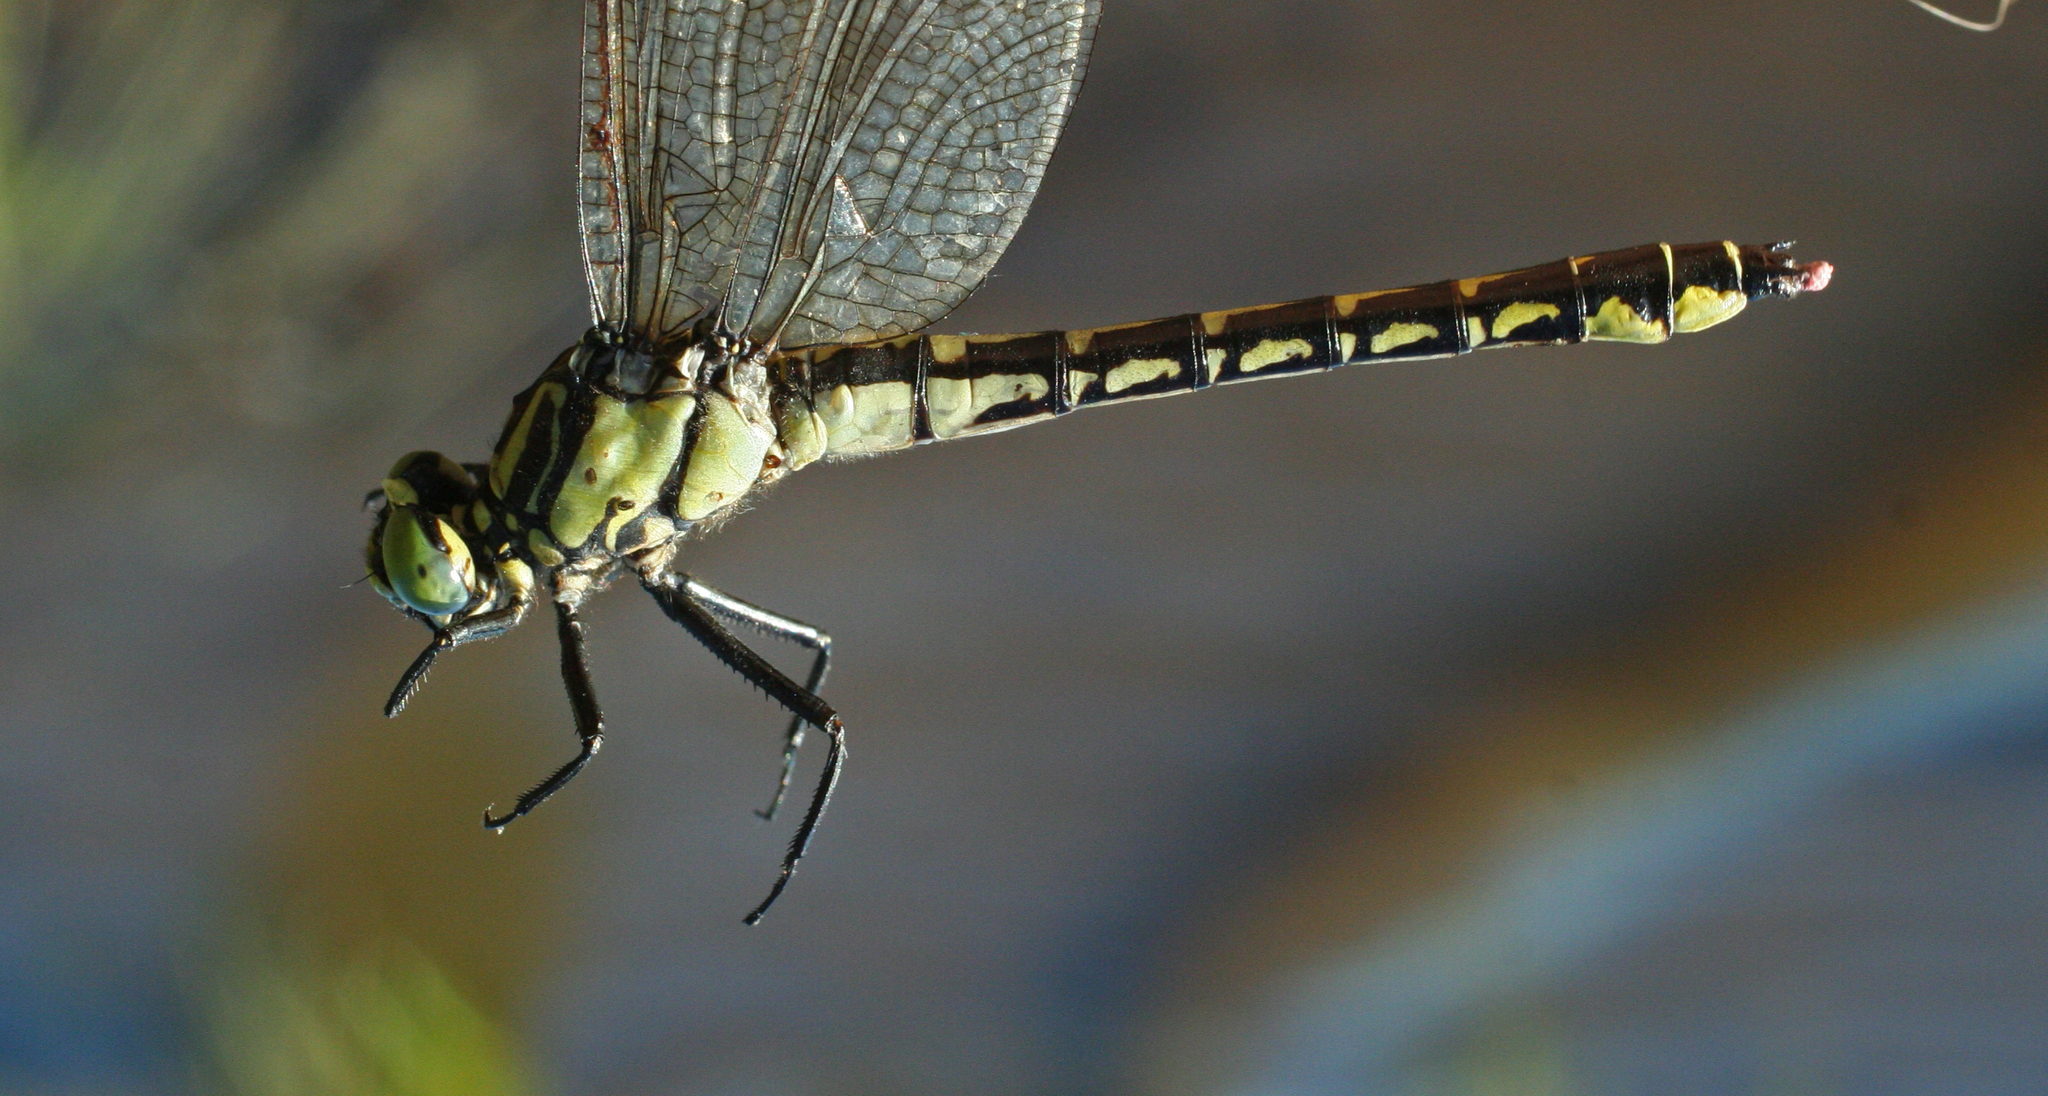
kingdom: Animalia
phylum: Arthropoda
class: Insecta
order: Odonata
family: Gomphidae
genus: Shaogomphus
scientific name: Shaogomphus schmidti
